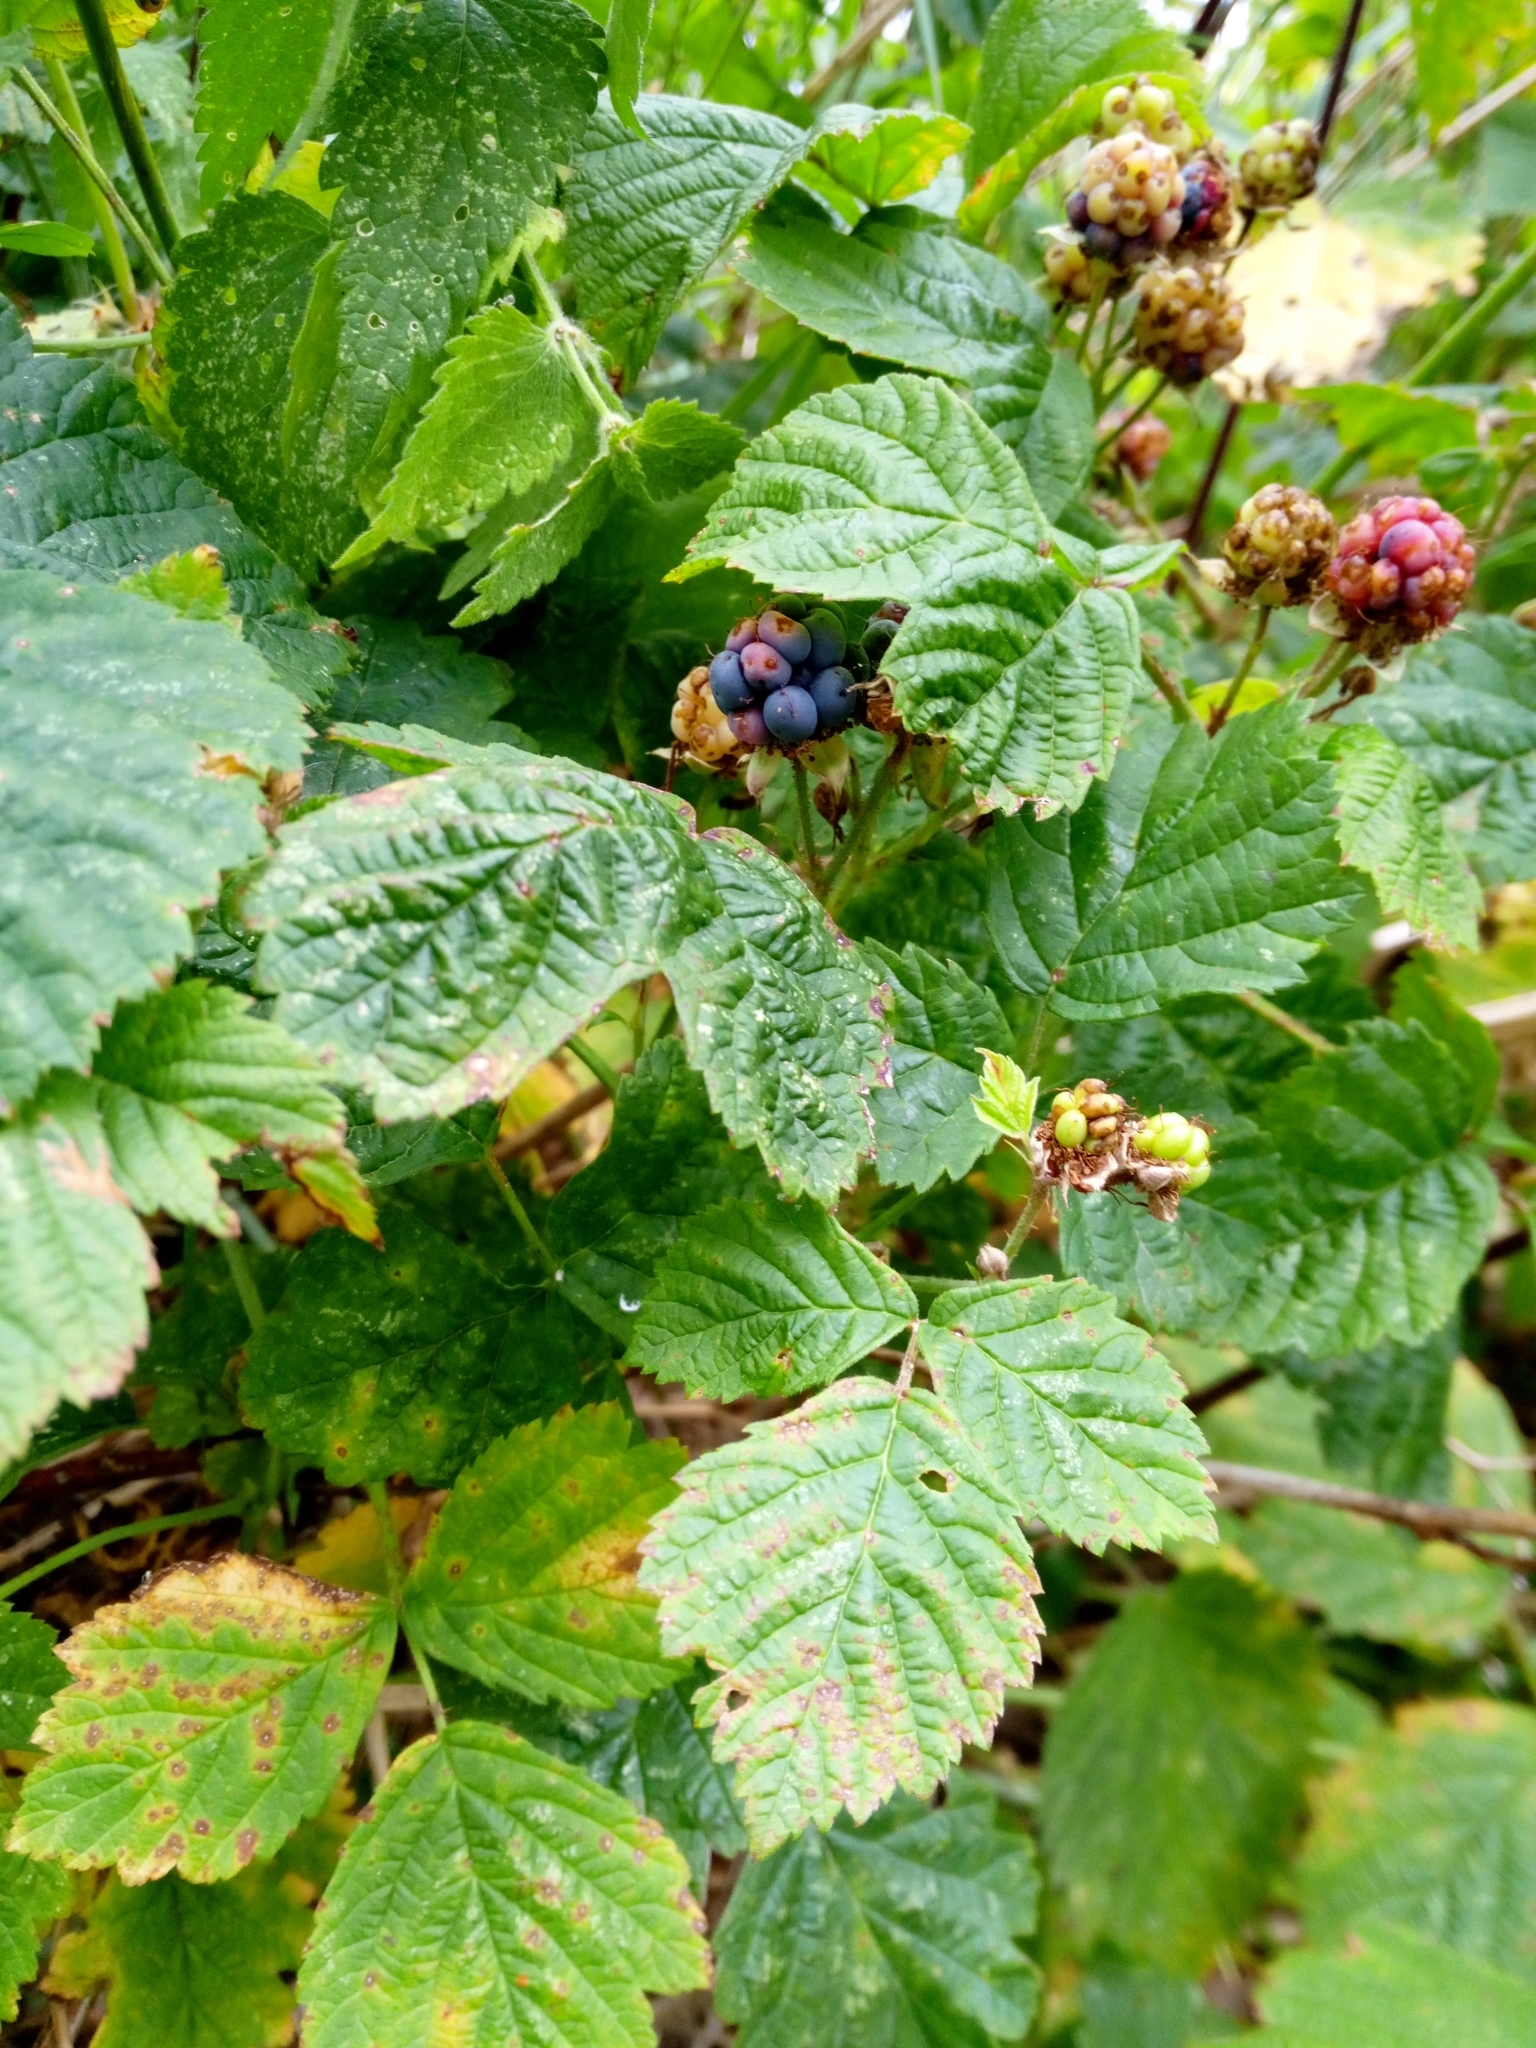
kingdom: Plantae
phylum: Tracheophyta
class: Magnoliopsida
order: Rosales
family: Rosaceae
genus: Rubus
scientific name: Rubus caesius
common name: Dewberry
